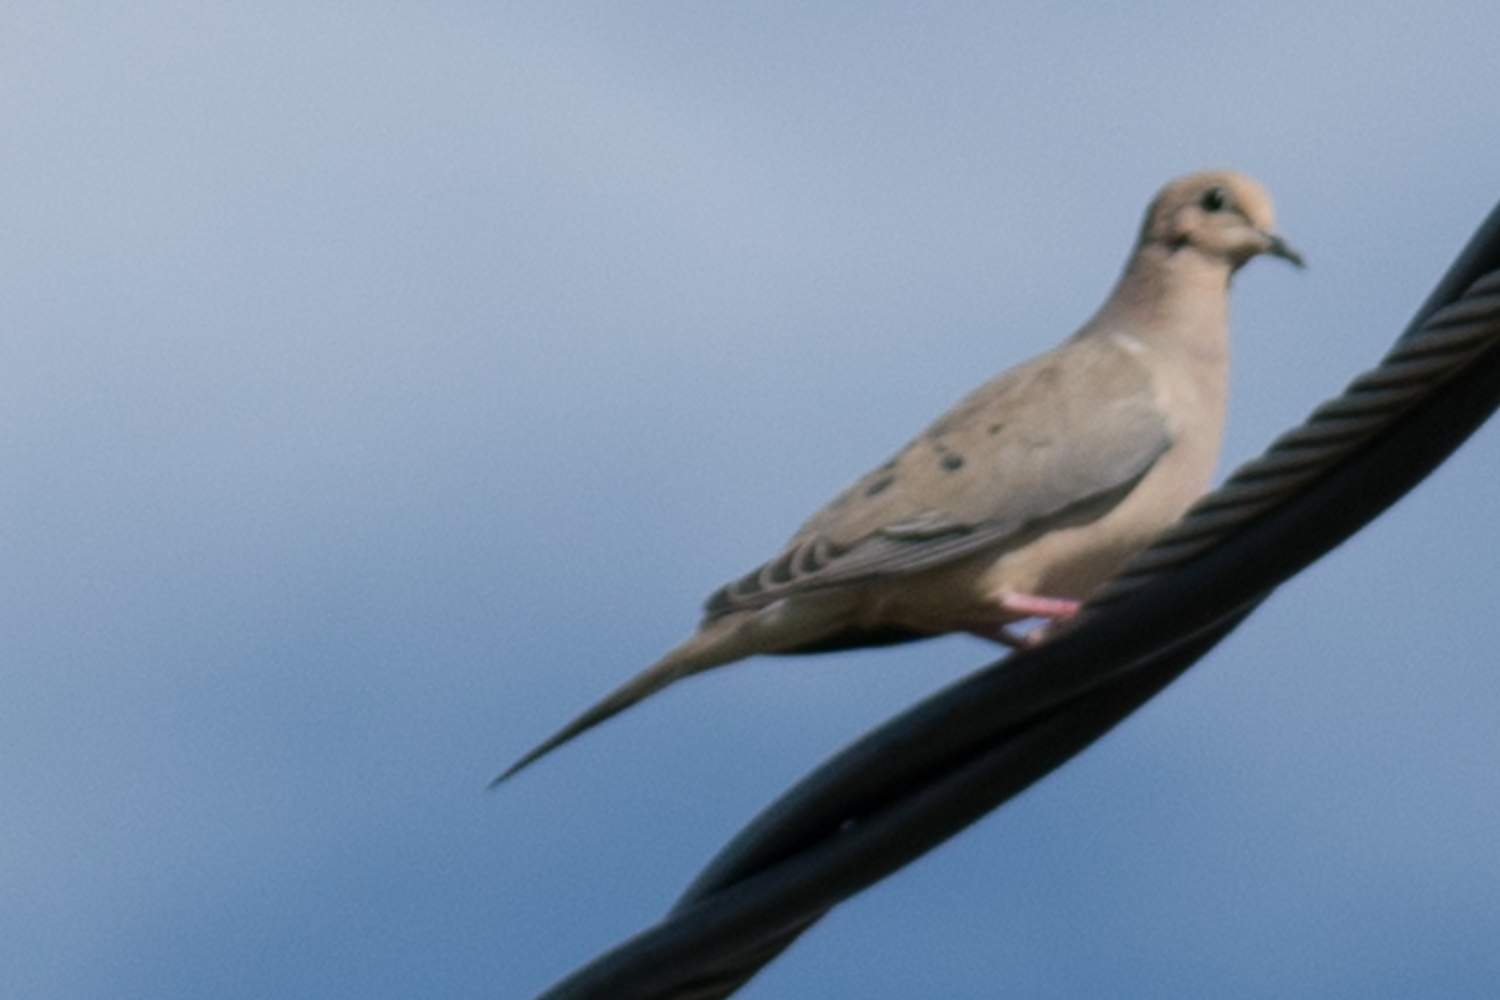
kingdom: Animalia
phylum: Chordata
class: Aves
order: Columbiformes
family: Columbidae
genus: Zenaida
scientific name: Zenaida macroura
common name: Mourning dove
